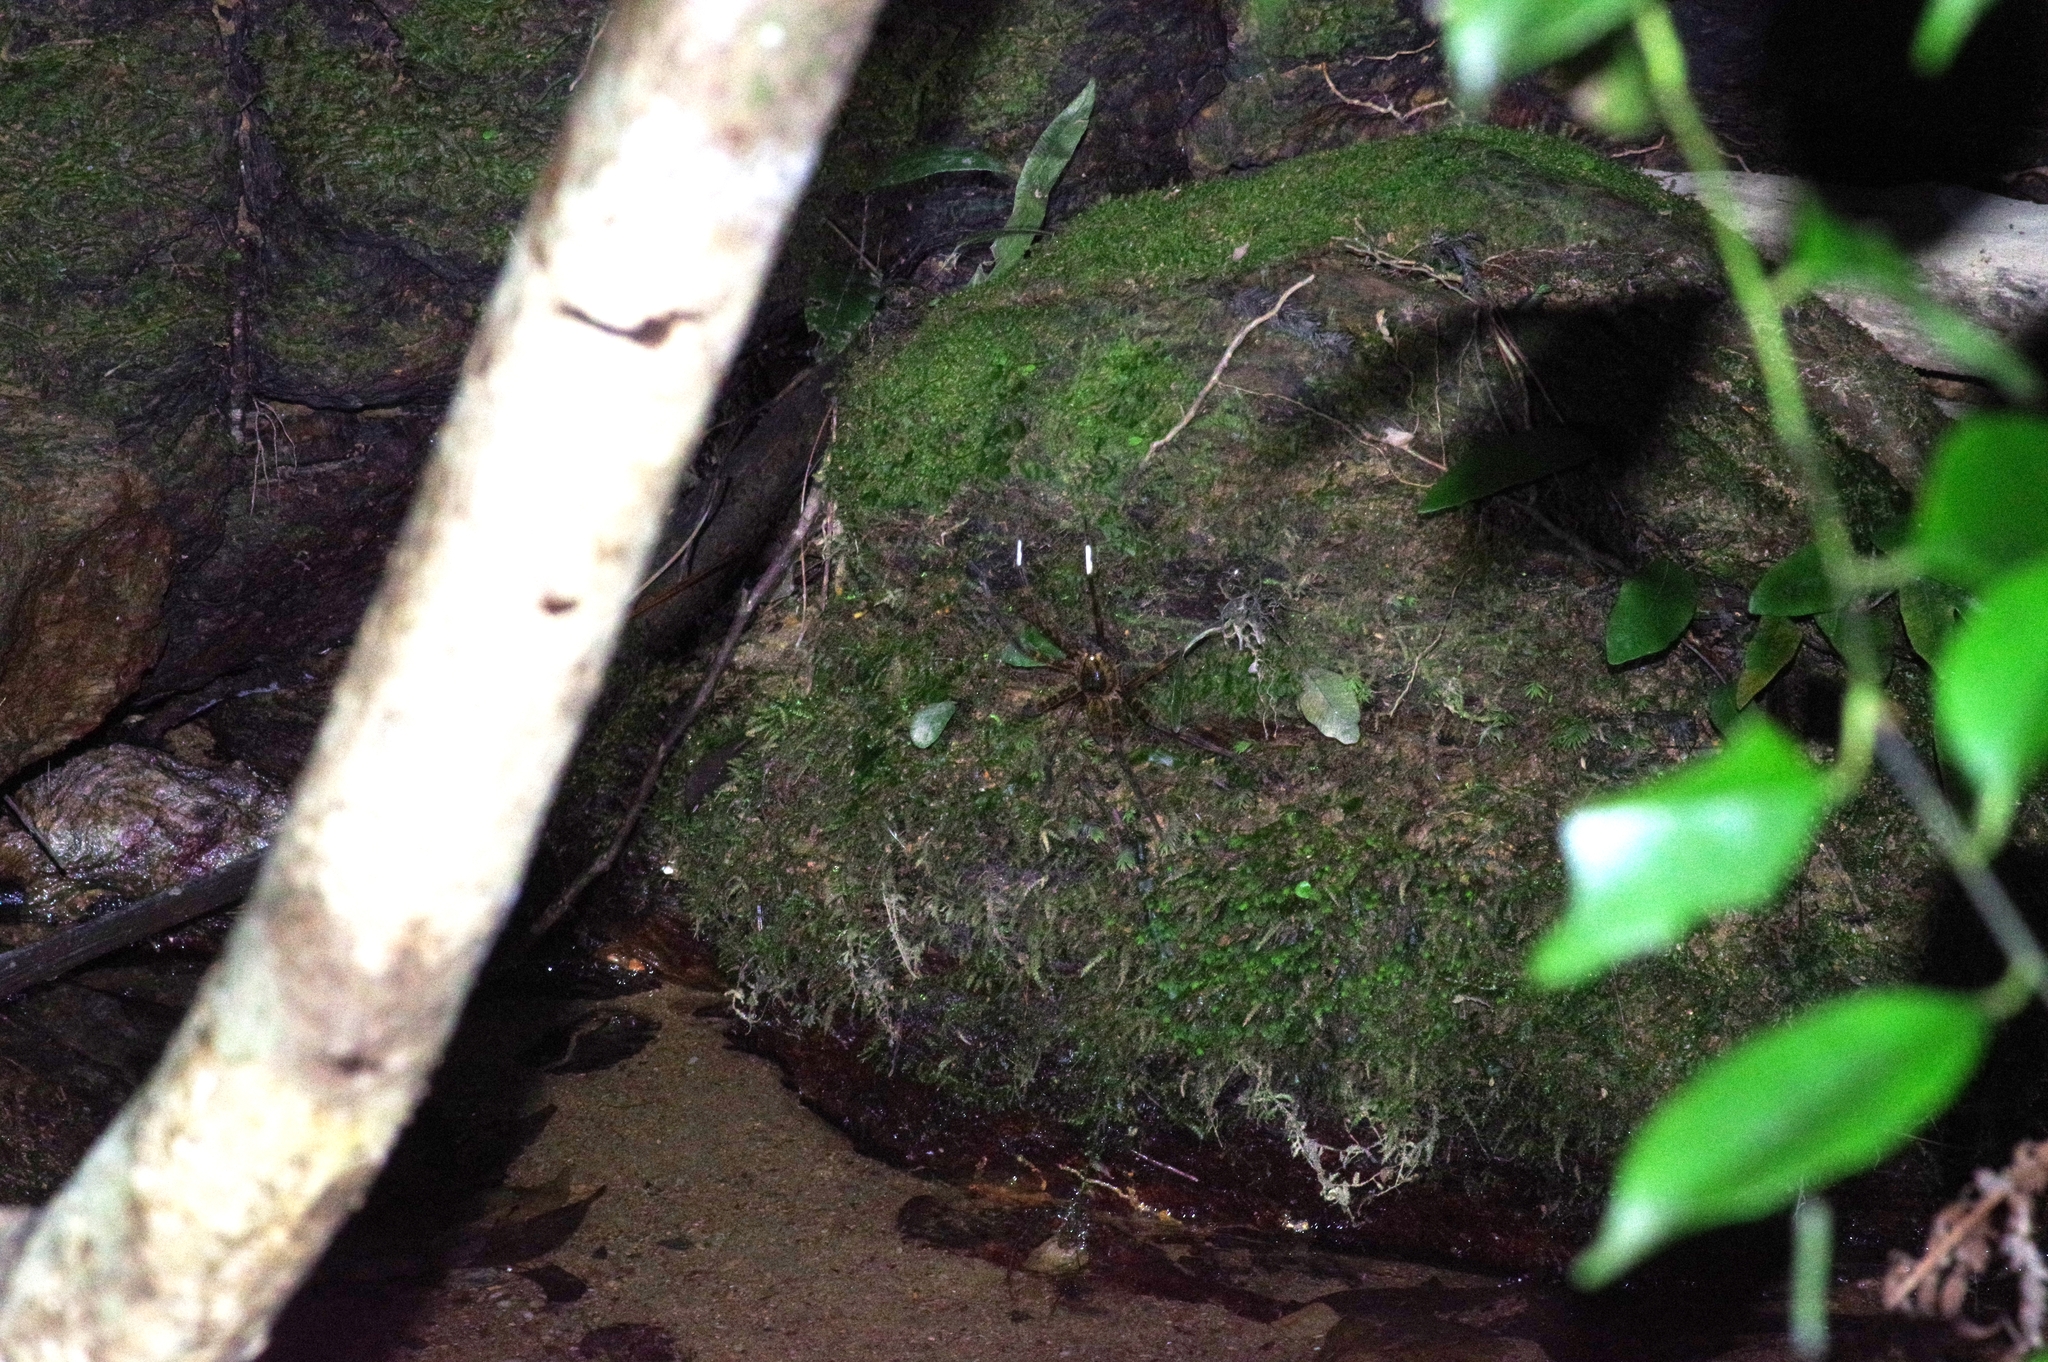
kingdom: Animalia
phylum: Arthropoda
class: Arachnida
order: Araneae
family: Pisauridae
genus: Dolomedes
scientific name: Dolomedes orion
